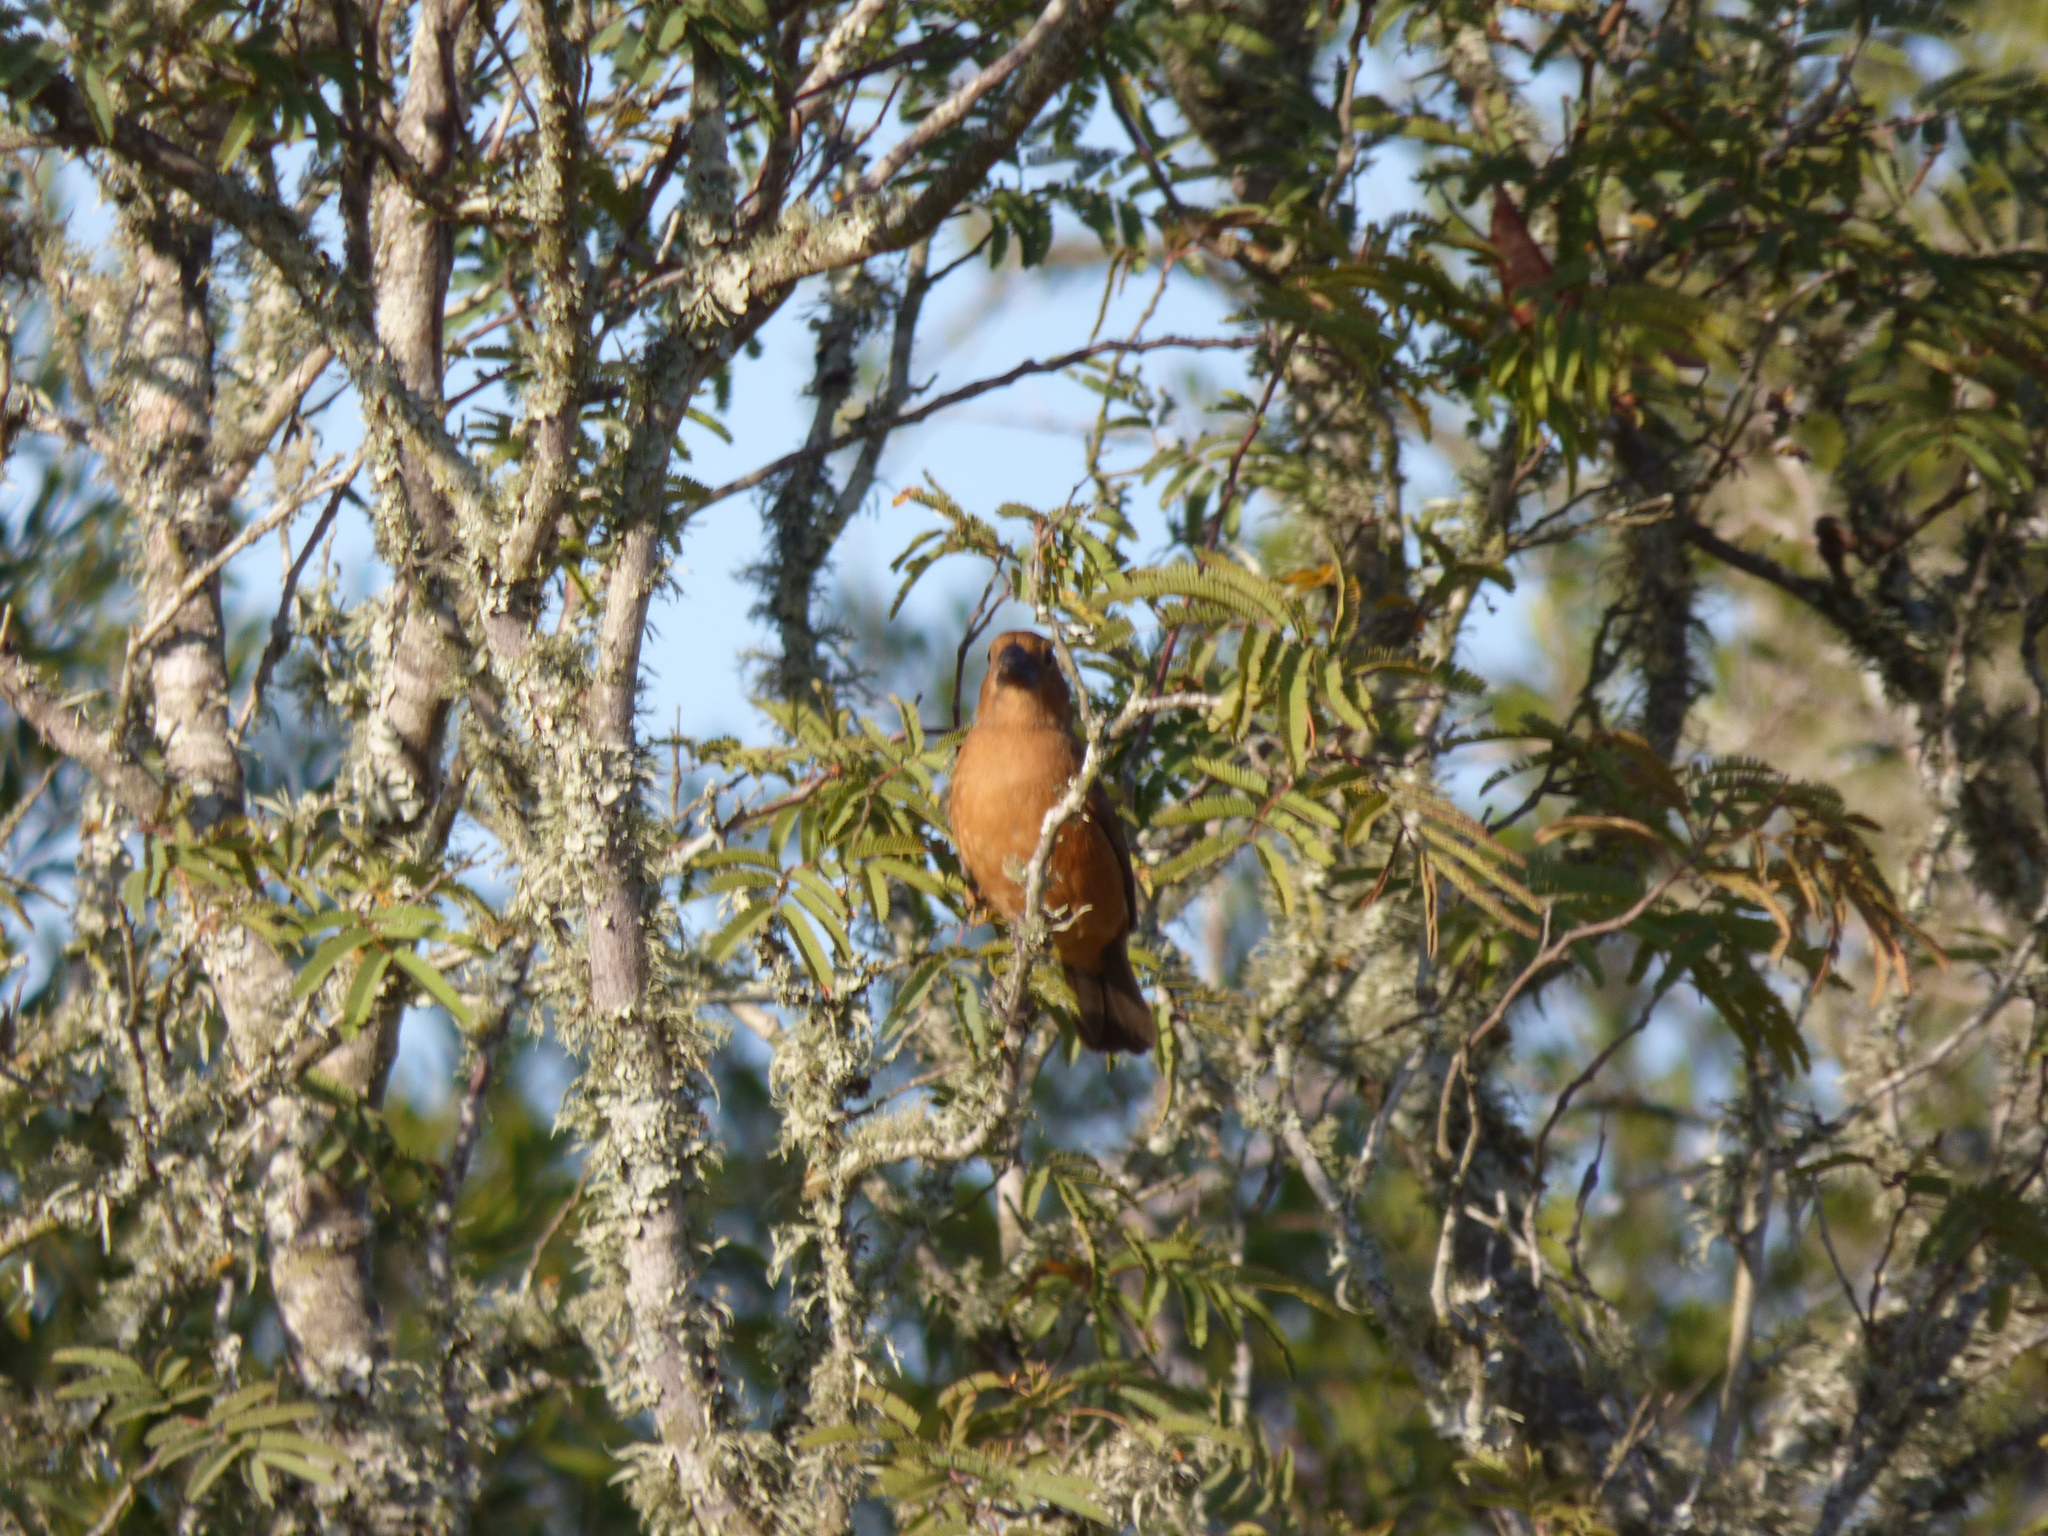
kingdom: Animalia
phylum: Chordata
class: Aves
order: Passeriformes
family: Cardinalidae
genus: Cyanoloxia
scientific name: Cyanoloxia brissonii
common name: Ultramarine grosbeak
